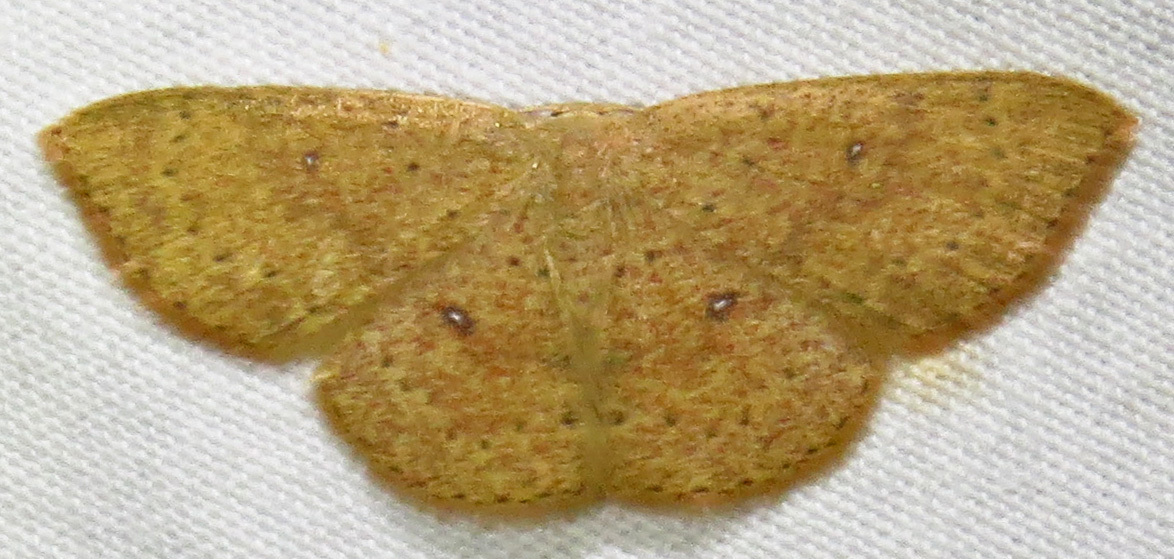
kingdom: Animalia
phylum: Arthropoda
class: Insecta
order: Lepidoptera
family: Geometridae
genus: Cyclophora
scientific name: Cyclophora packardi
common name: Packard's wave
